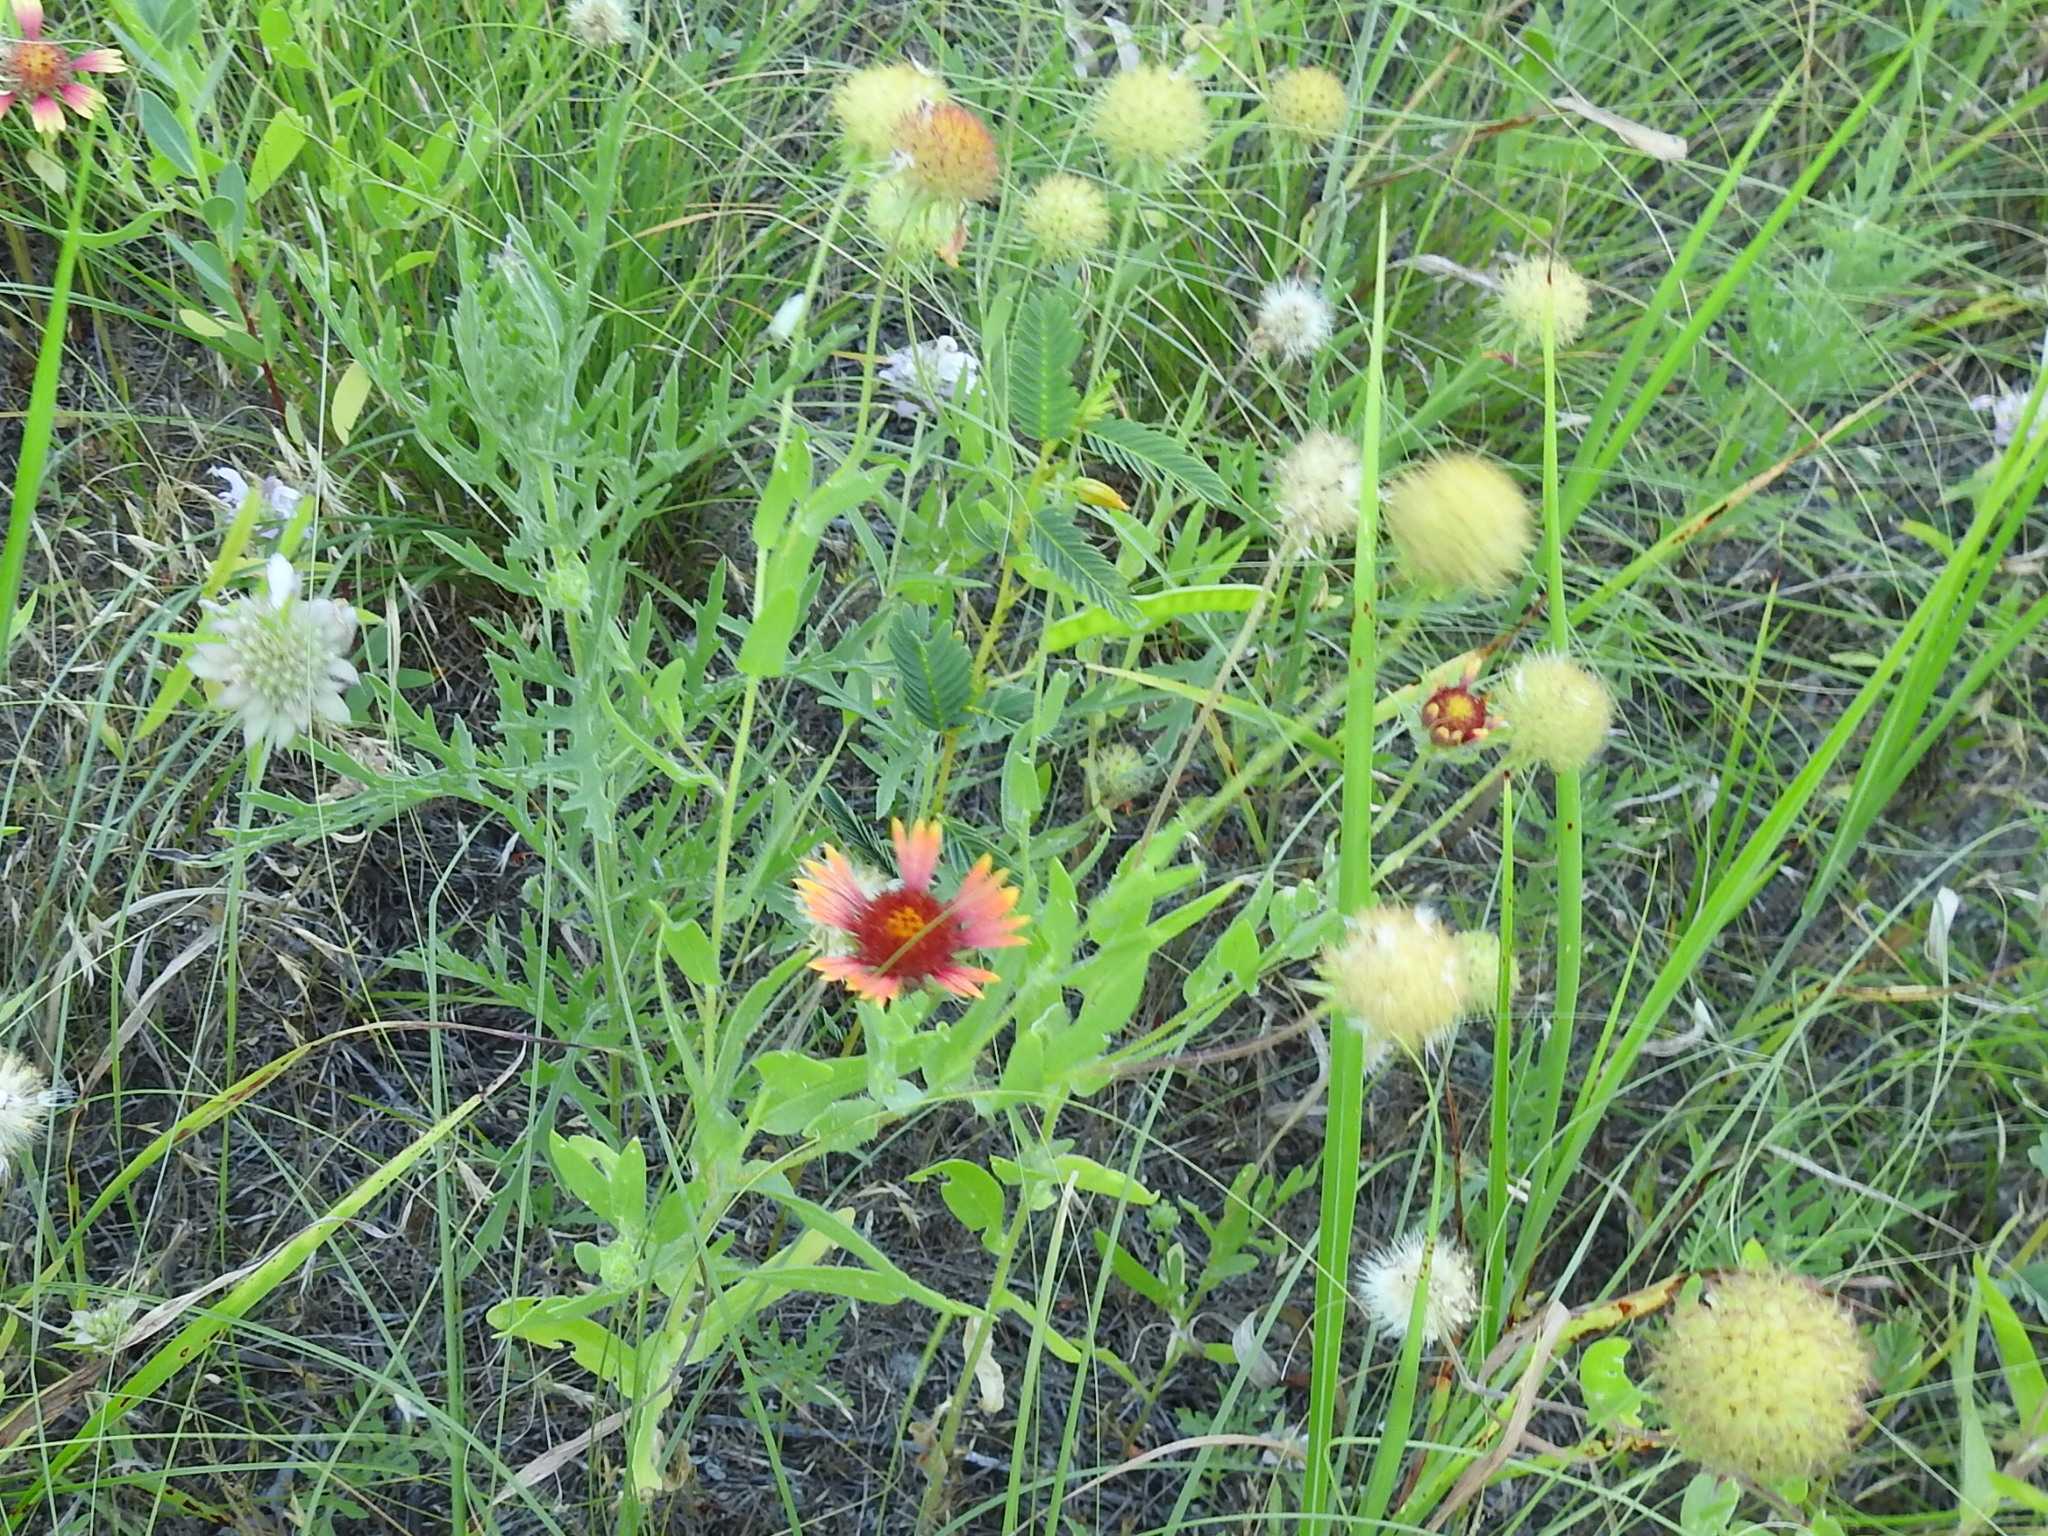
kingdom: Plantae
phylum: Tracheophyta
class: Magnoliopsida
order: Asterales
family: Asteraceae
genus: Gaillardia
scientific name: Gaillardia pulchella
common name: Firewheel
